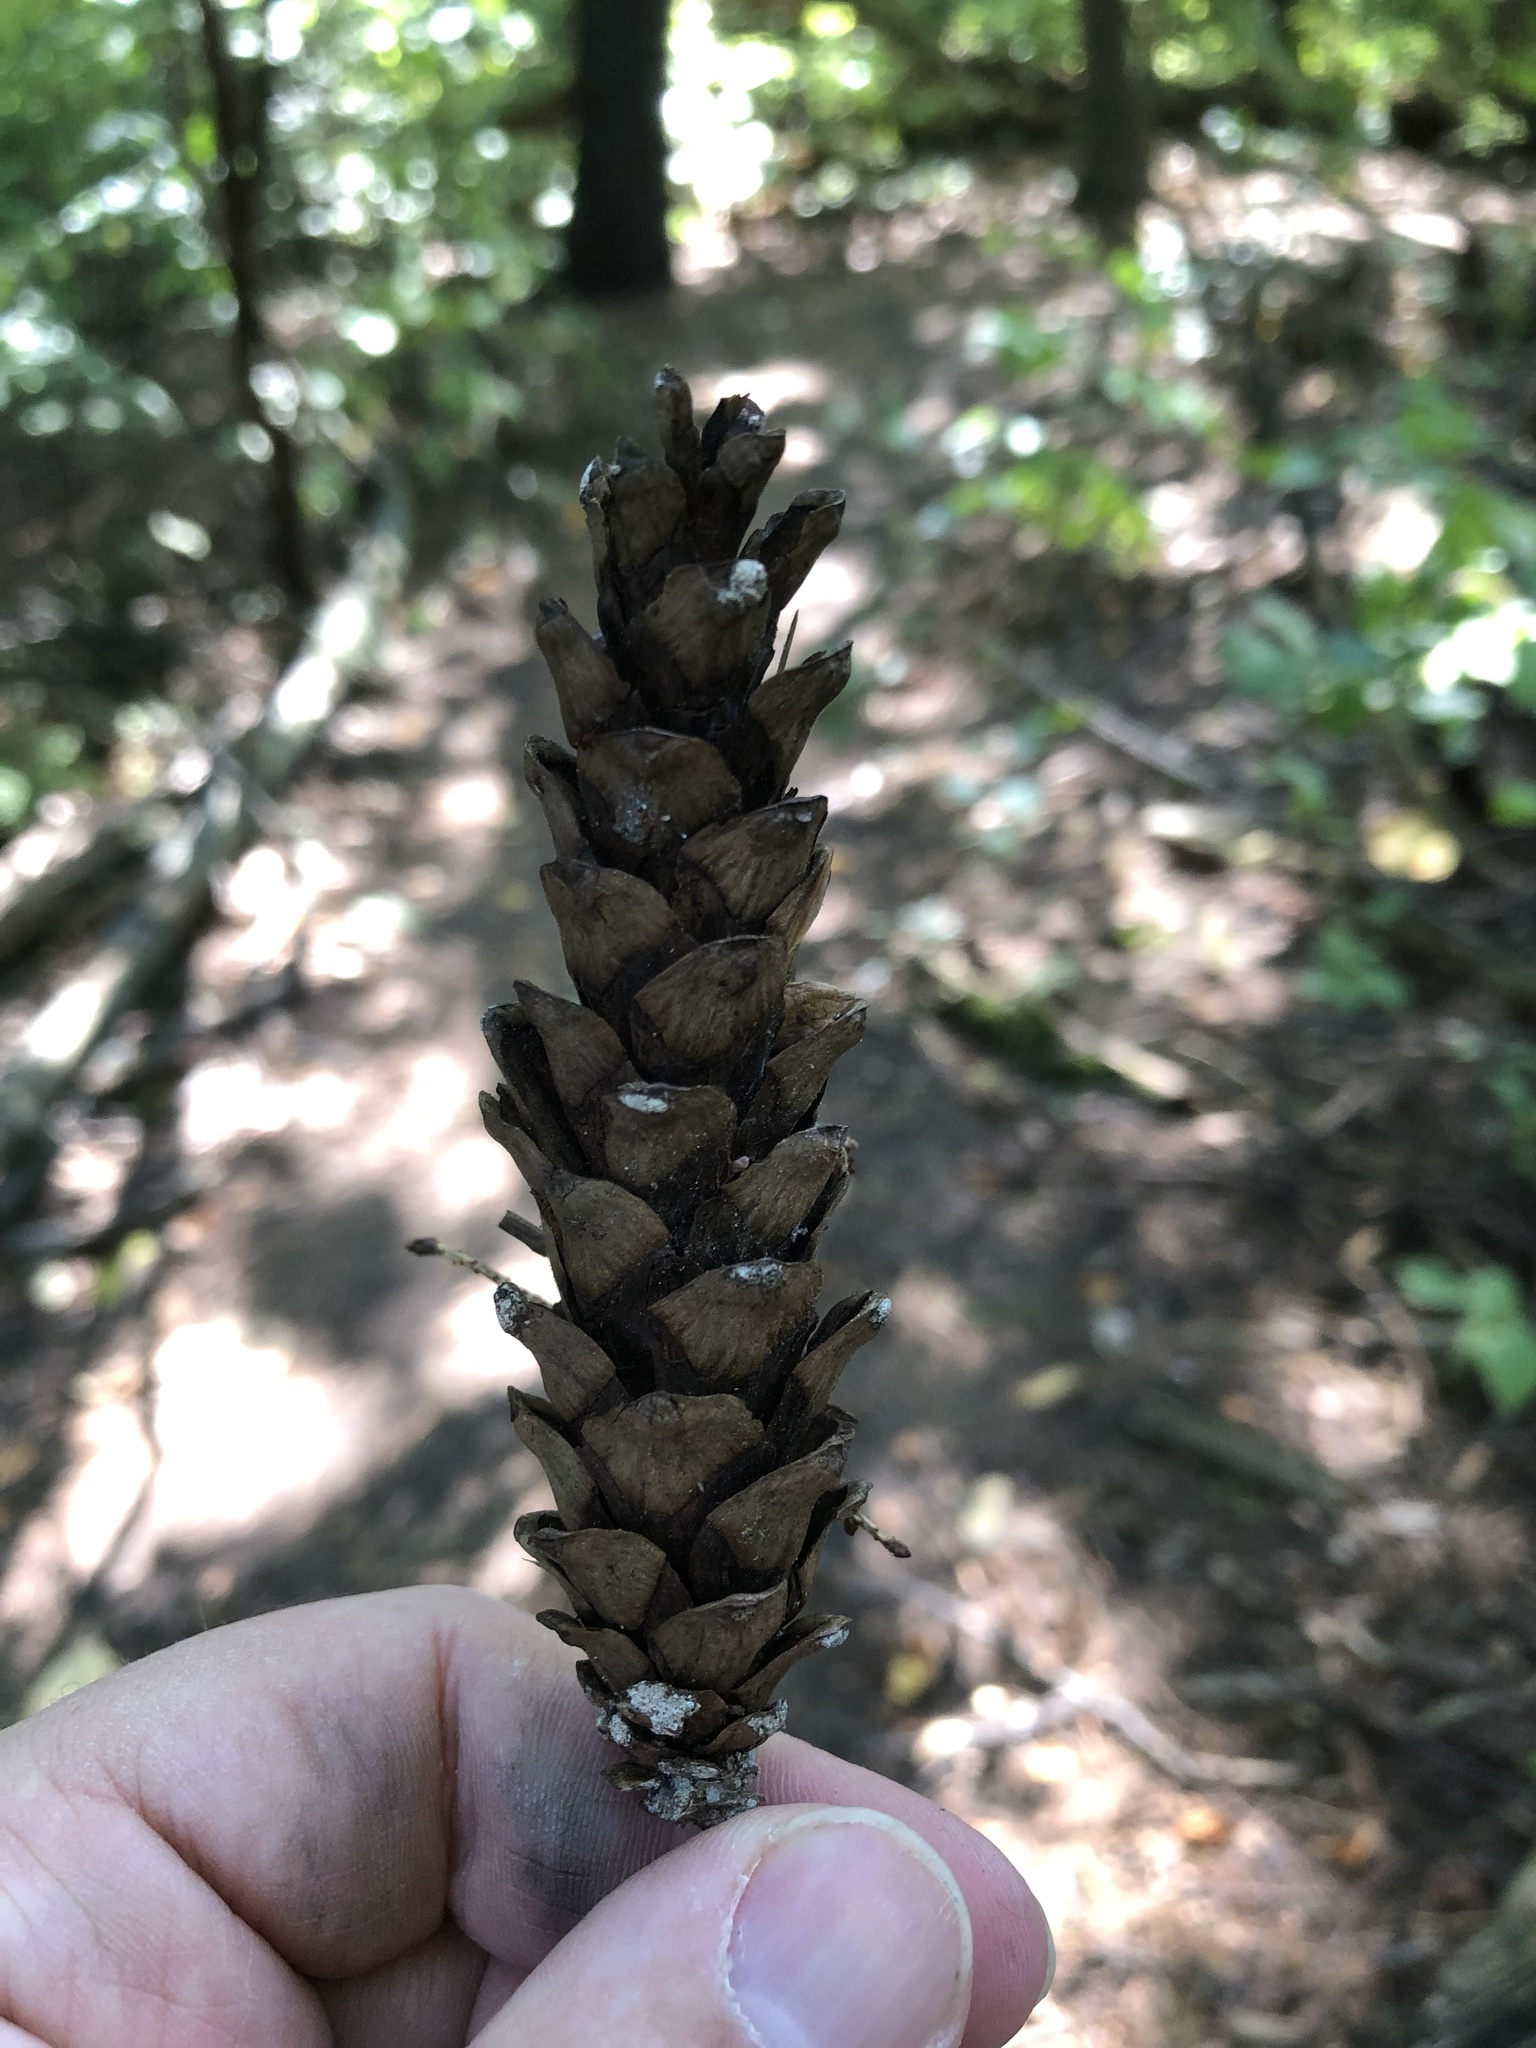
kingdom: Plantae
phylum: Tracheophyta
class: Pinopsida
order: Pinales
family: Pinaceae
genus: Pinus
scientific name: Pinus strobus
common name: Weymouth pine
